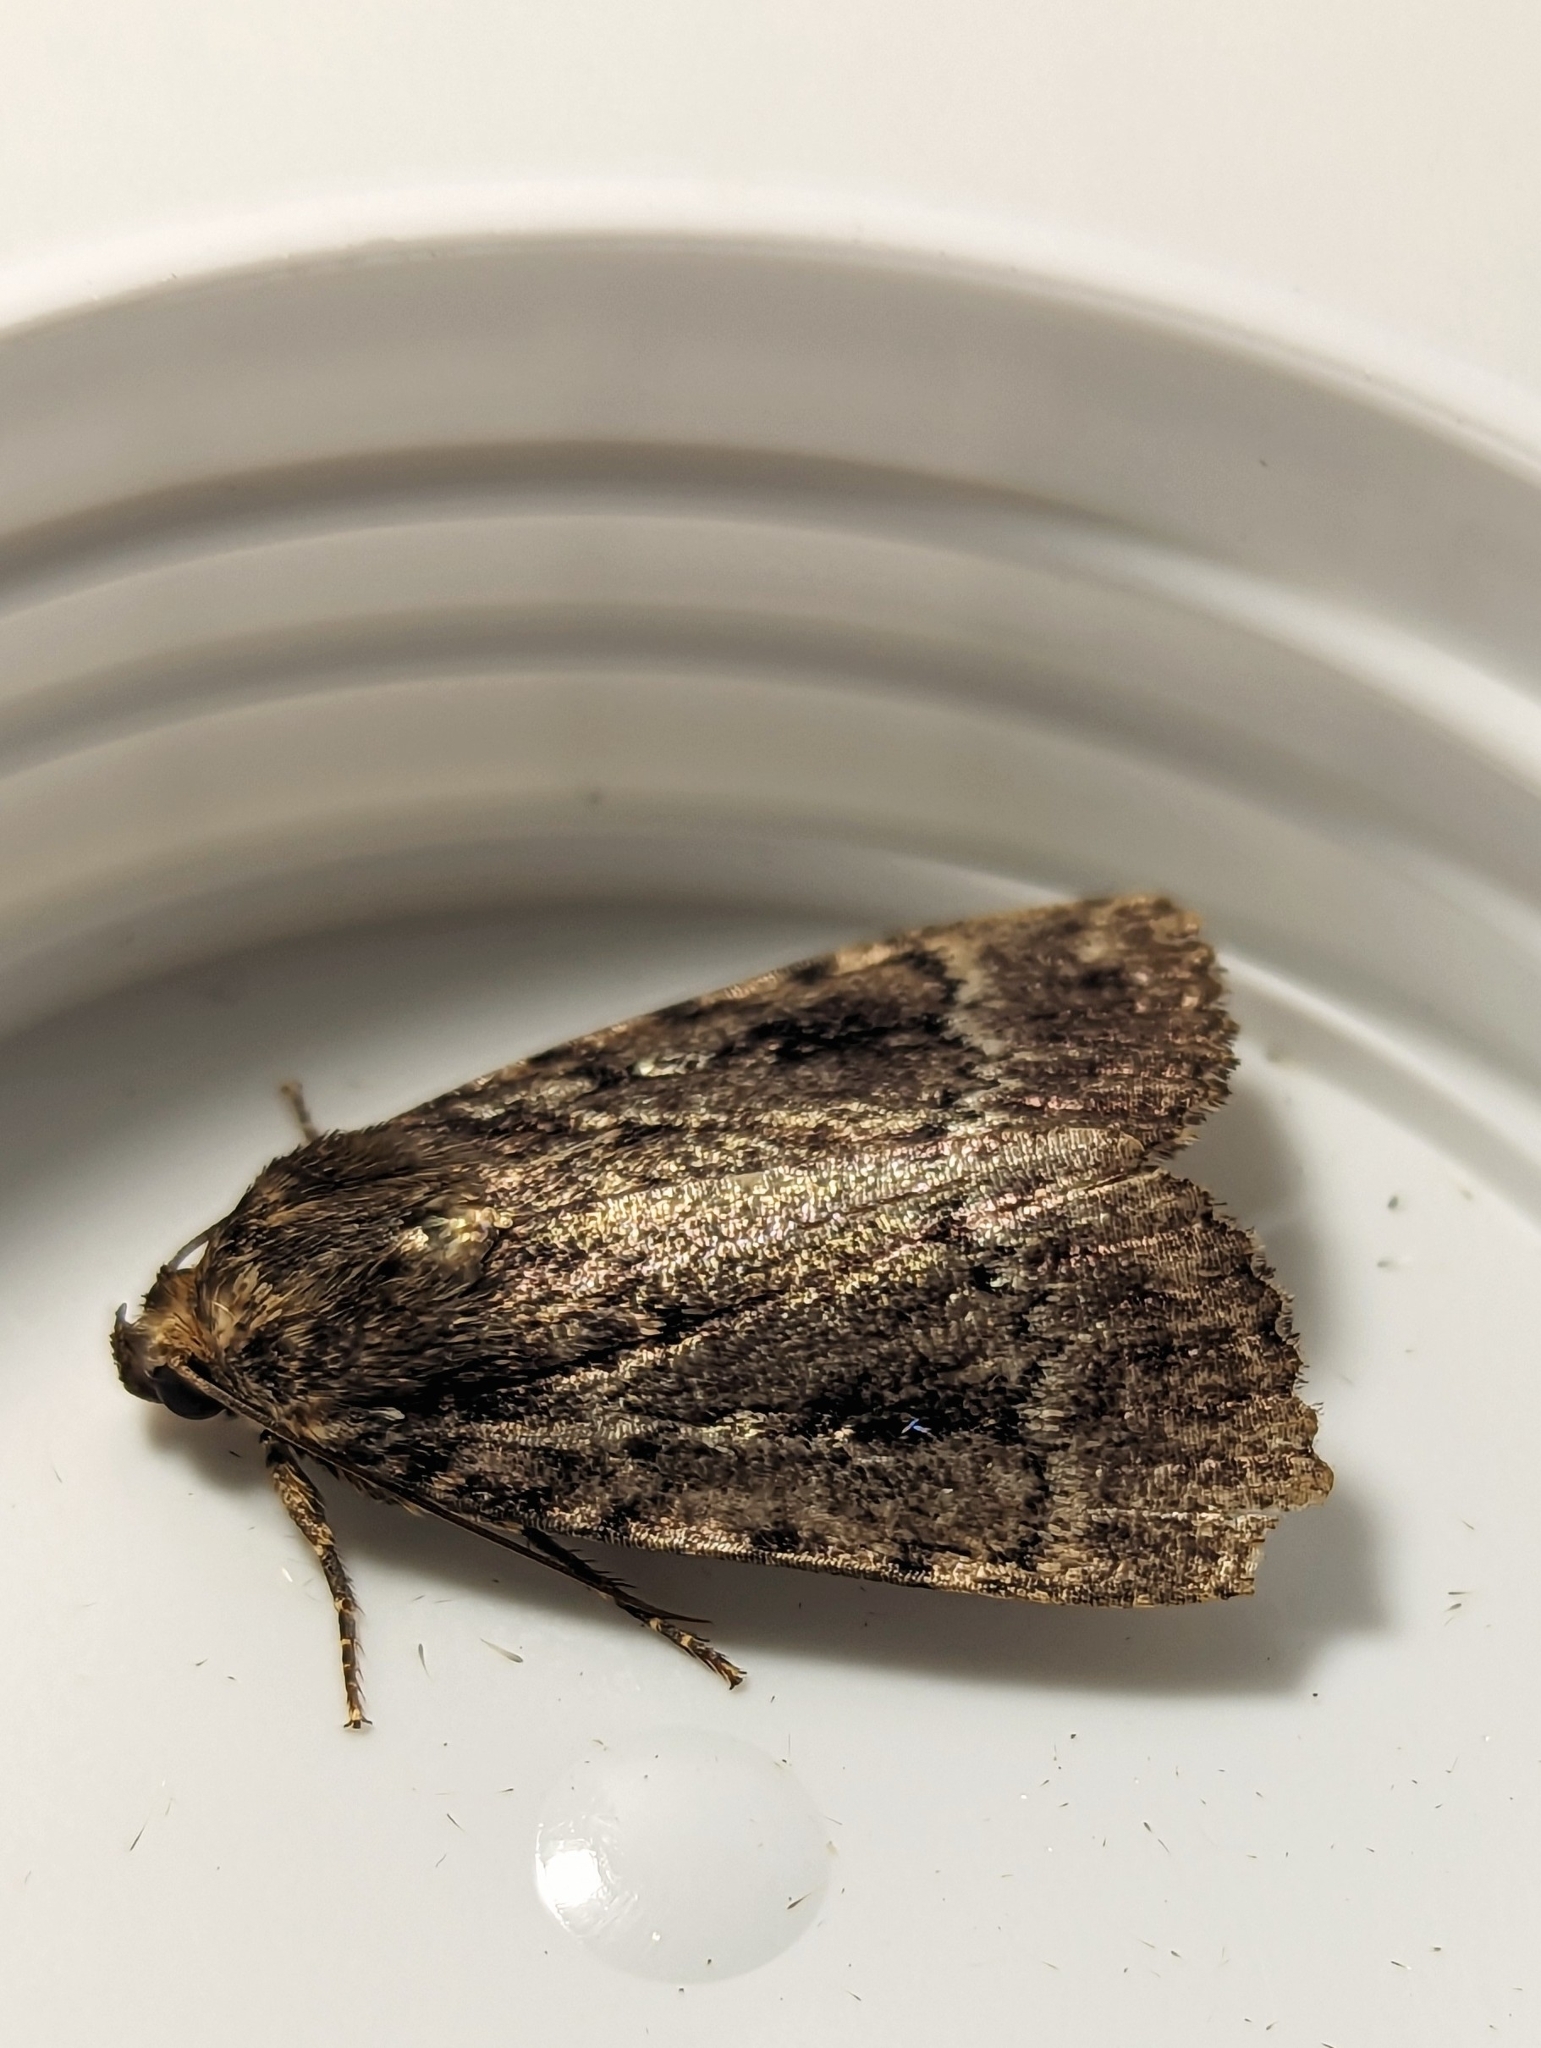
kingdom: Animalia
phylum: Arthropoda
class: Insecta
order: Lepidoptera
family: Noctuidae
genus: Amphipyra
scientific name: Amphipyra pyramidea
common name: Copper underwing
